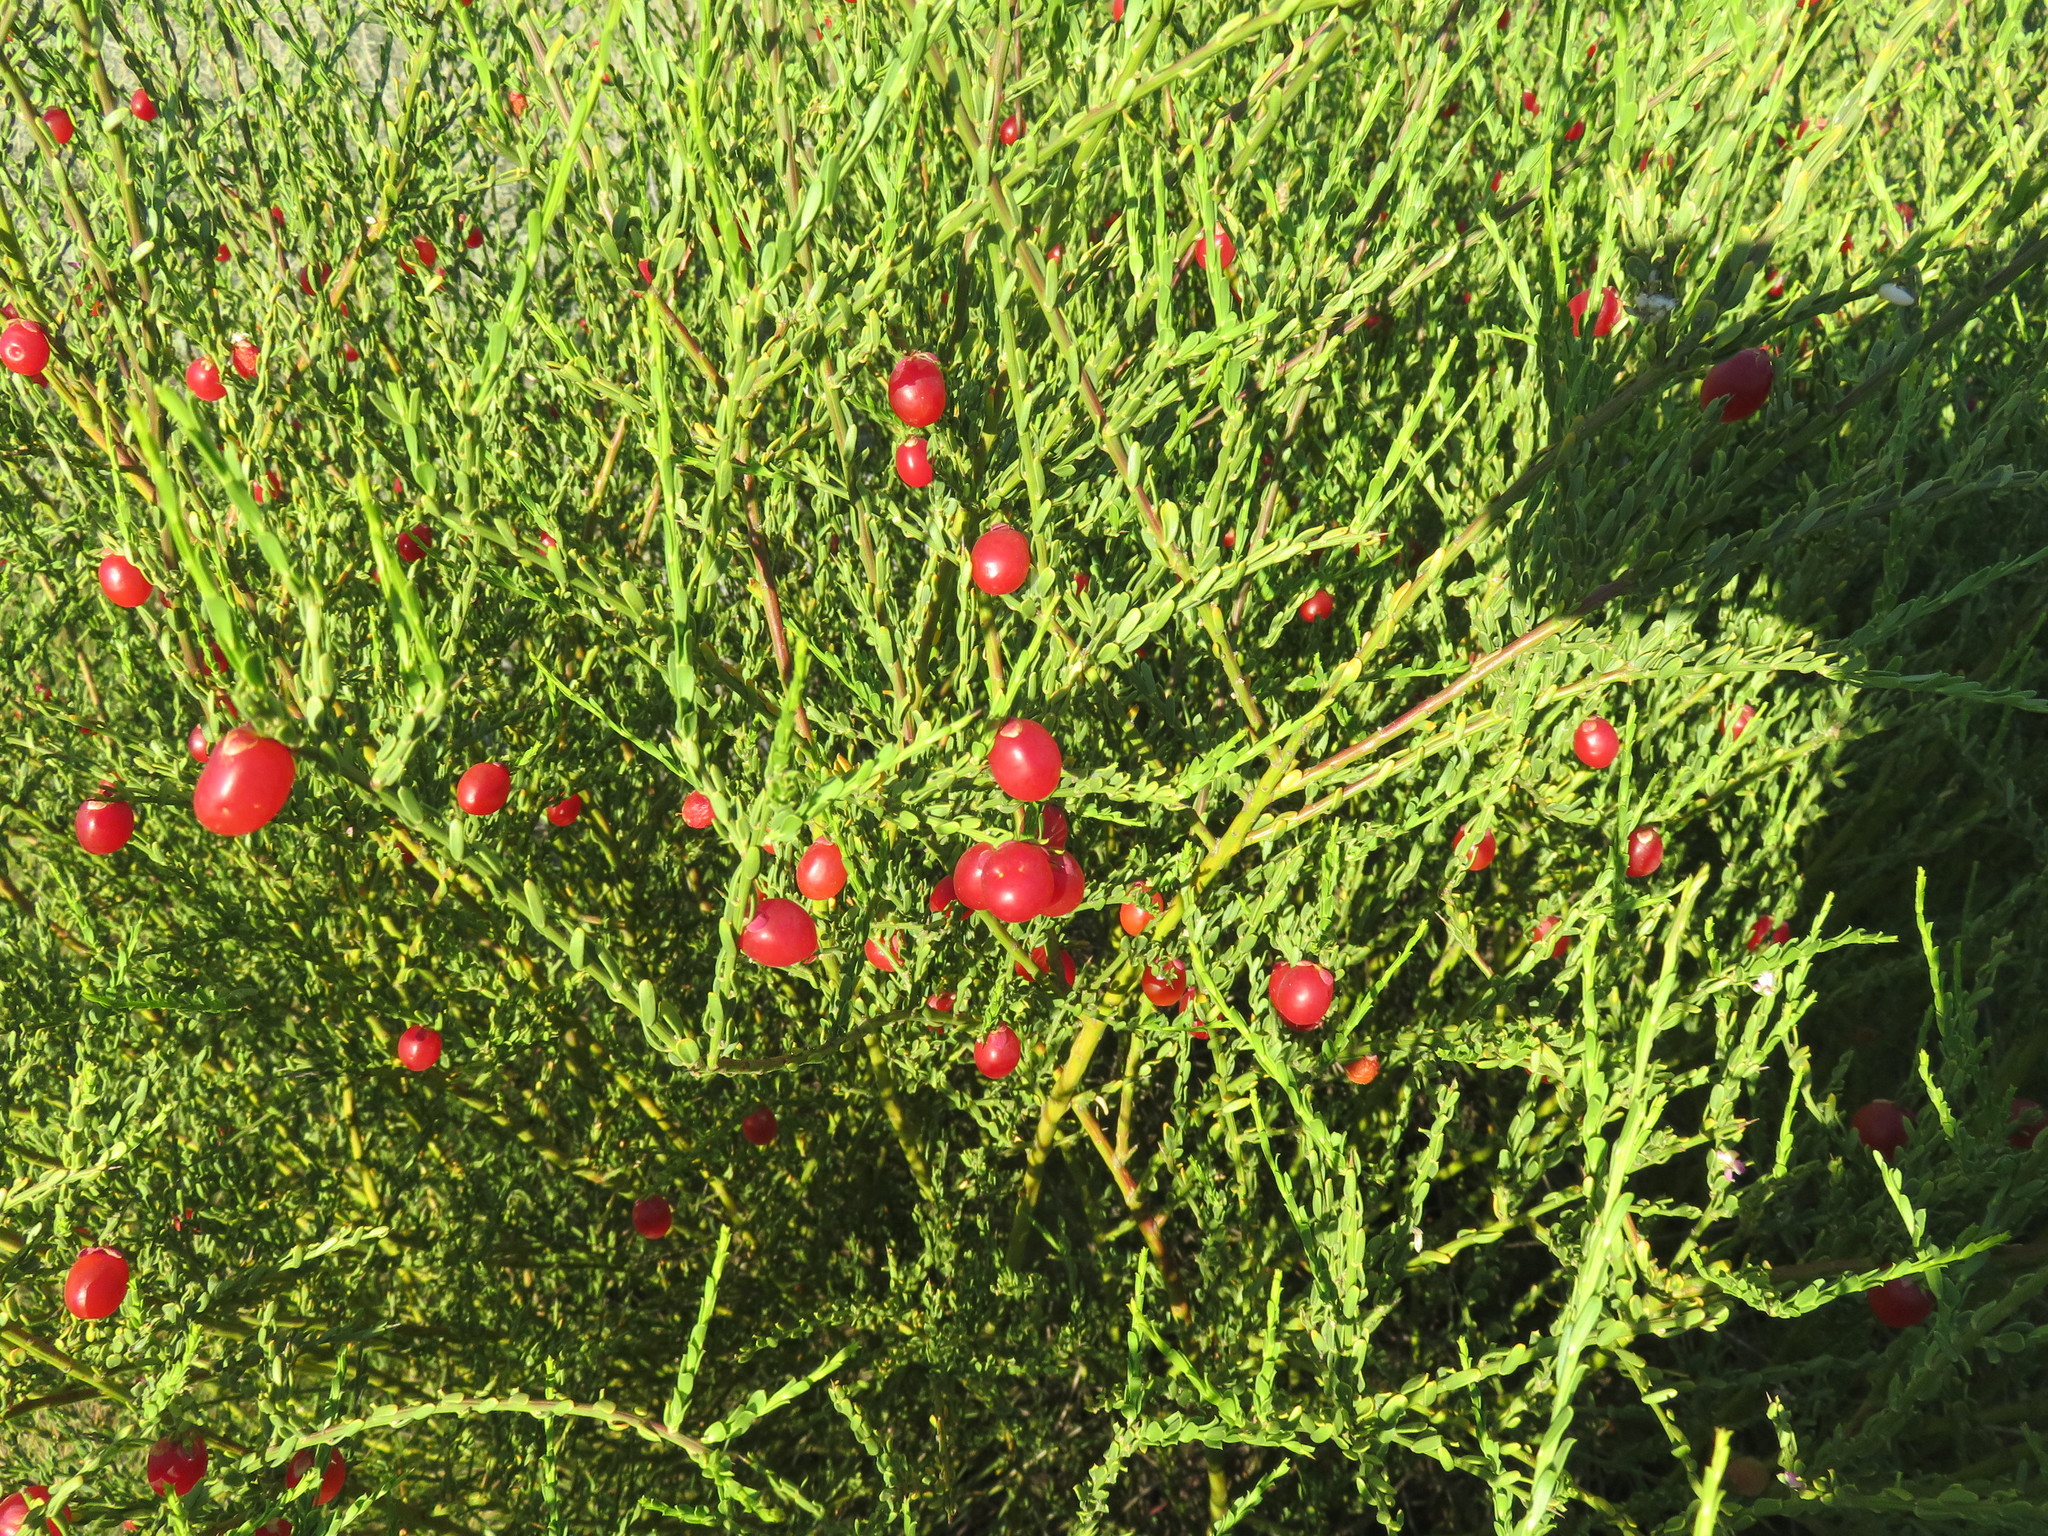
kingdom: Plantae
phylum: Tracheophyta
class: Magnoliopsida
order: Fabales
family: Polygalaceae
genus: Muraltia
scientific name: Muraltia spinosa
